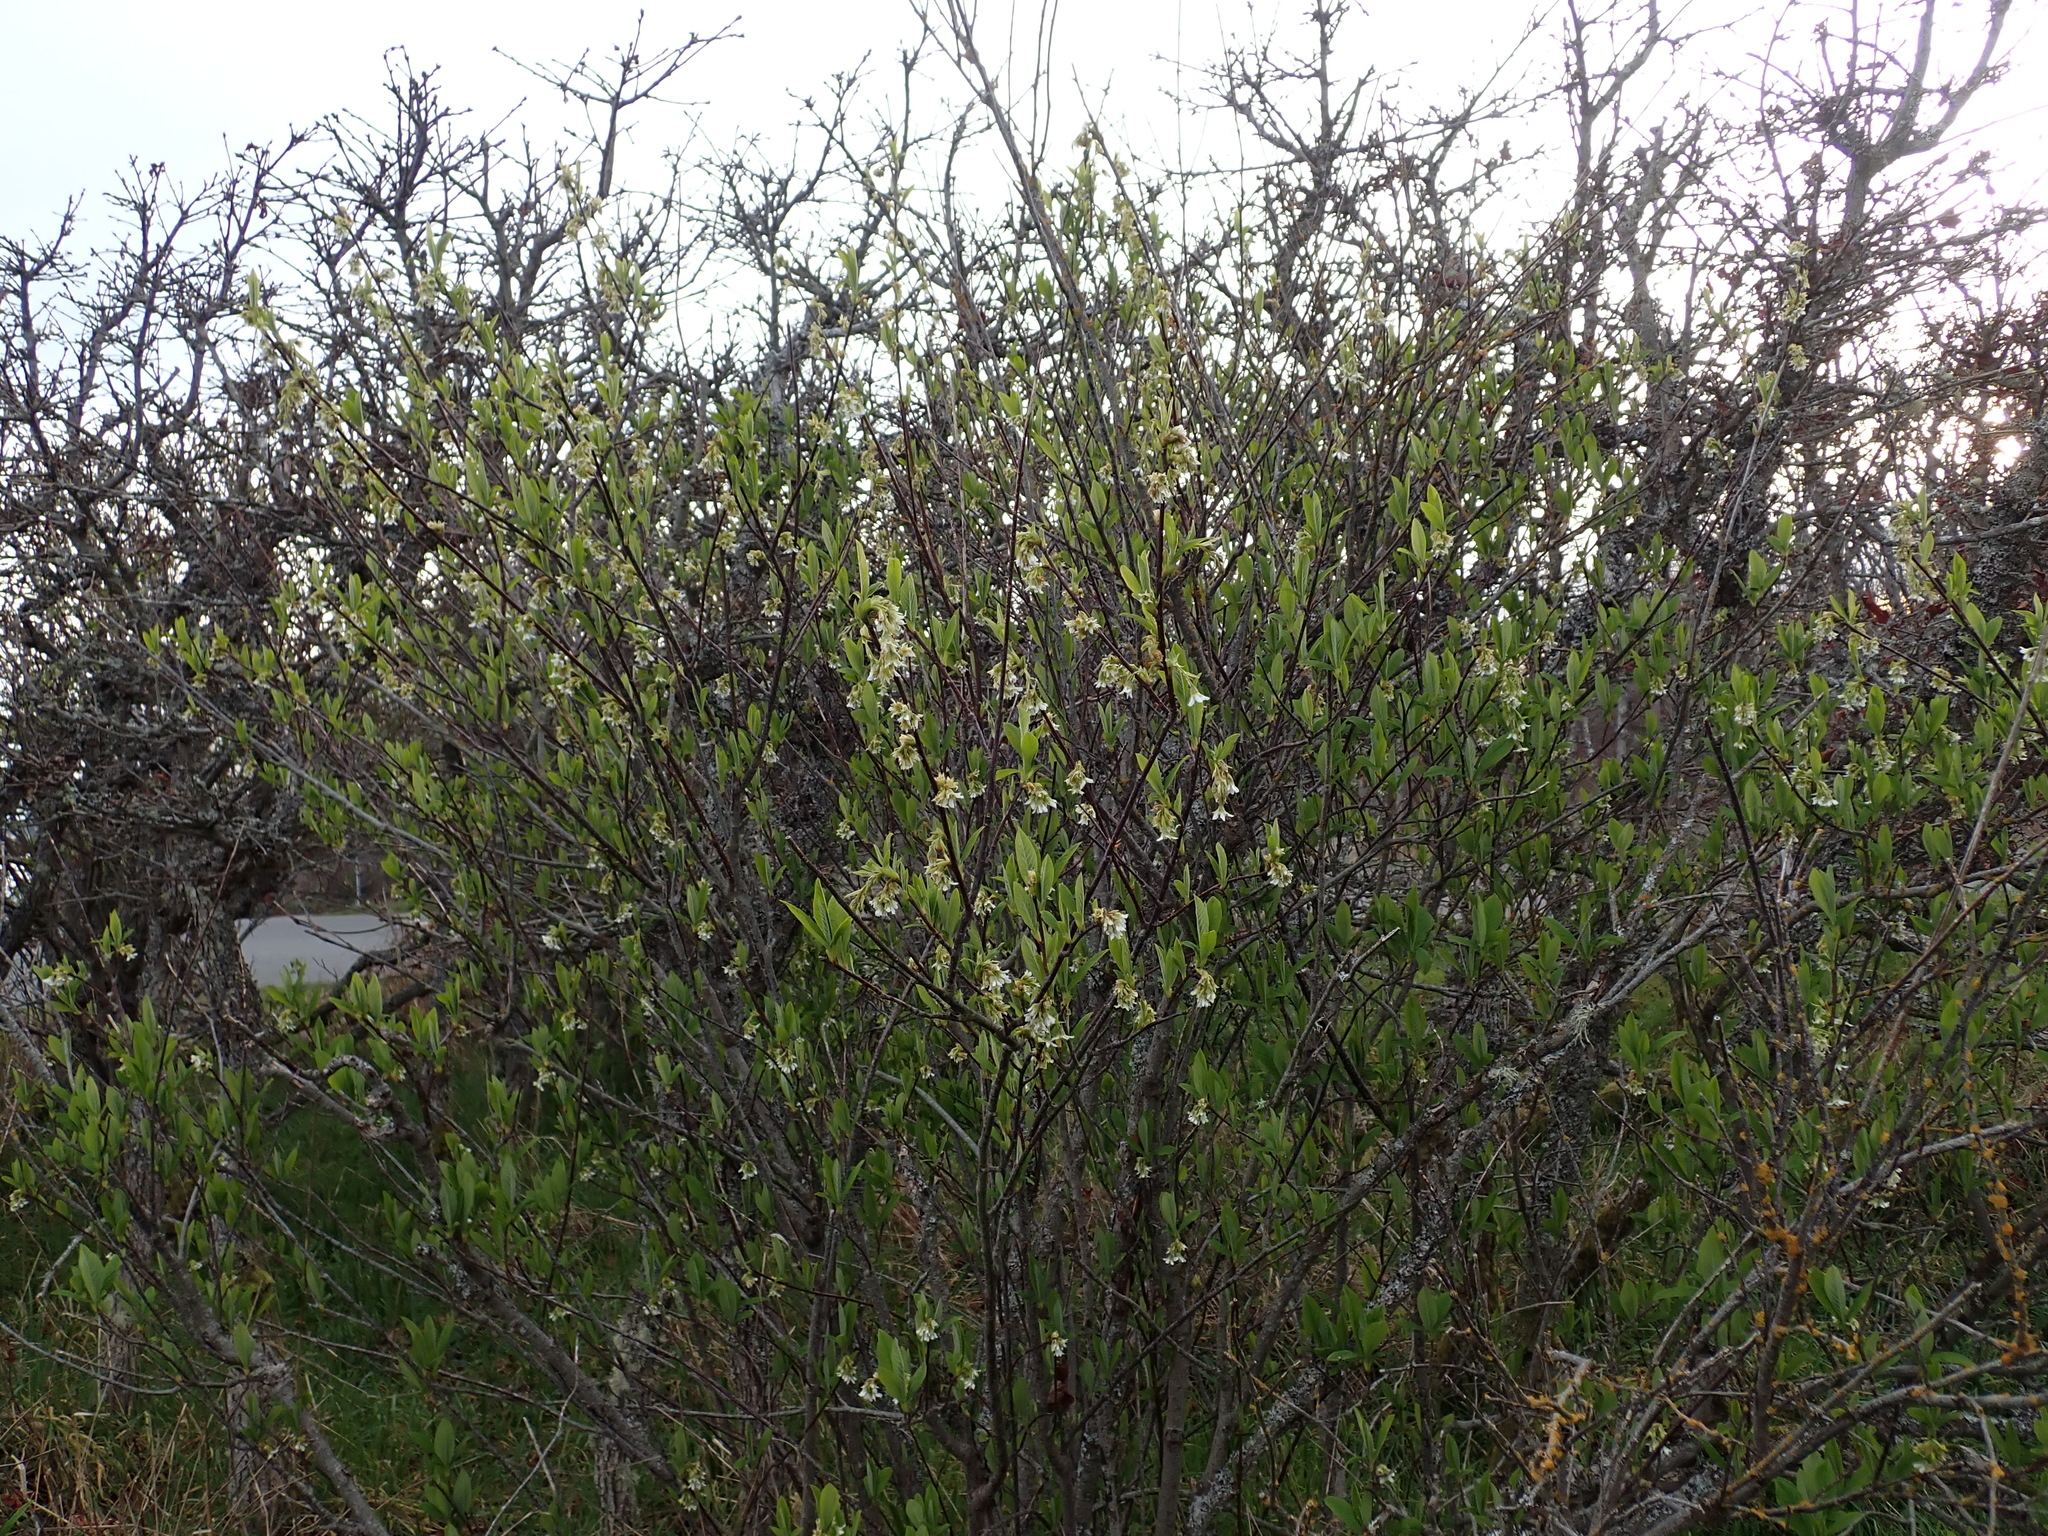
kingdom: Plantae
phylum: Tracheophyta
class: Magnoliopsida
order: Rosales
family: Rosaceae
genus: Oemleria
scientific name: Oemleria cerasiformis
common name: Osoberry
